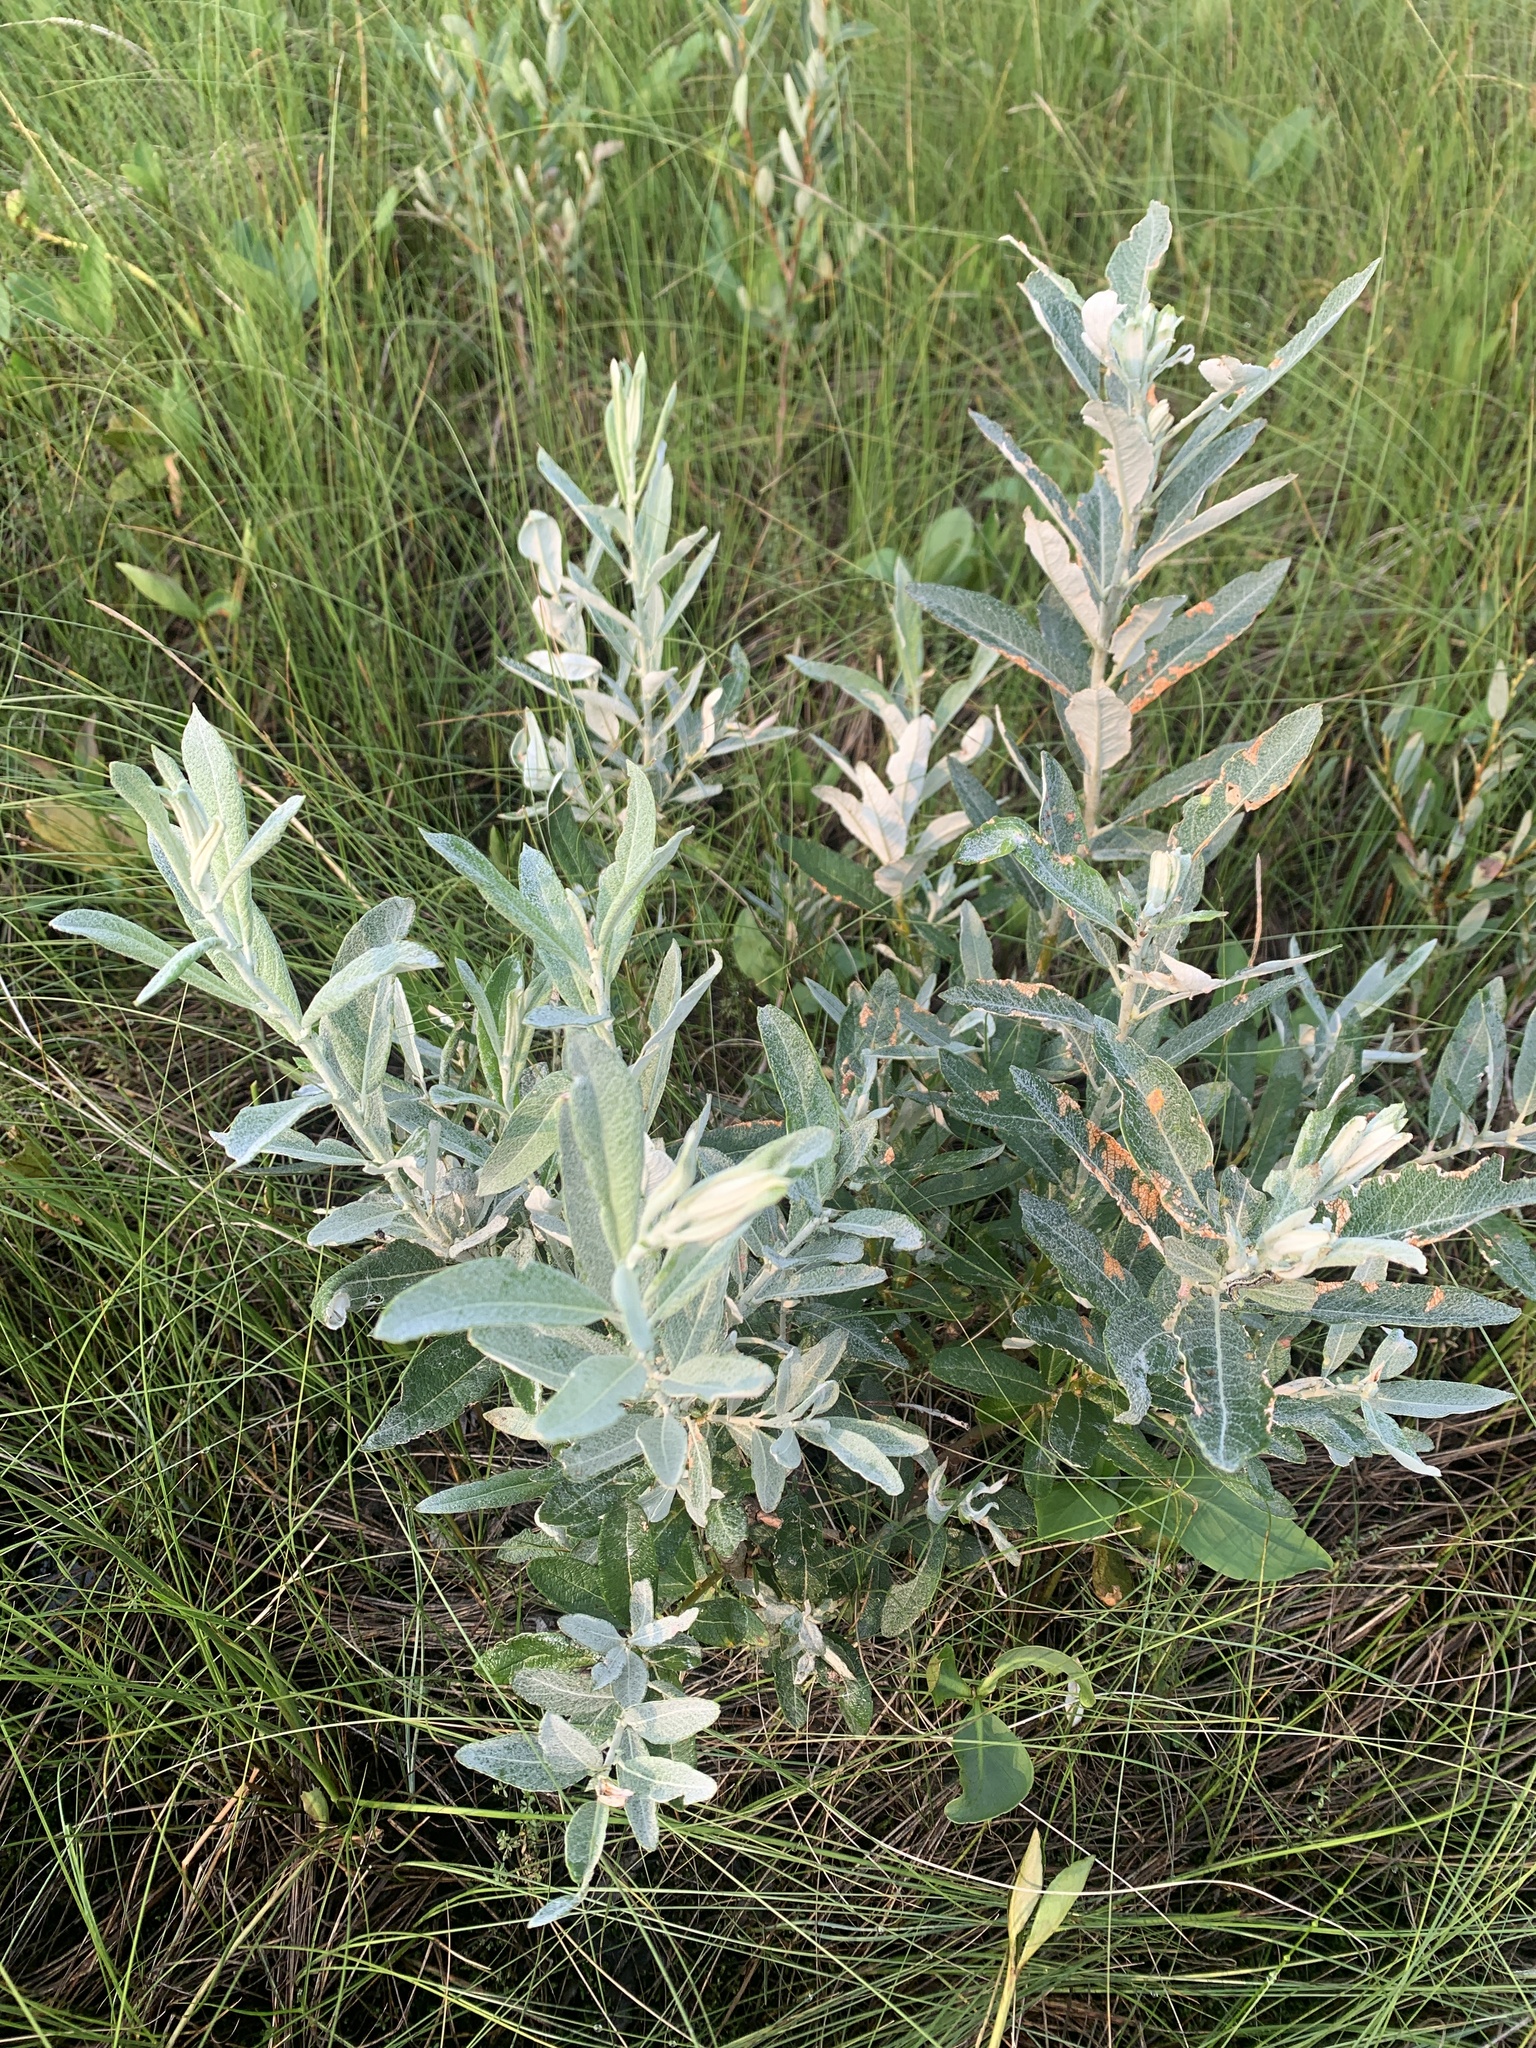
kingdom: Plantae
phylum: Tracheophyta
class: Magnoliopsida
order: Malpighiales
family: Salicaceae
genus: Salix
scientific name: Salix candida
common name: Hoary willow
